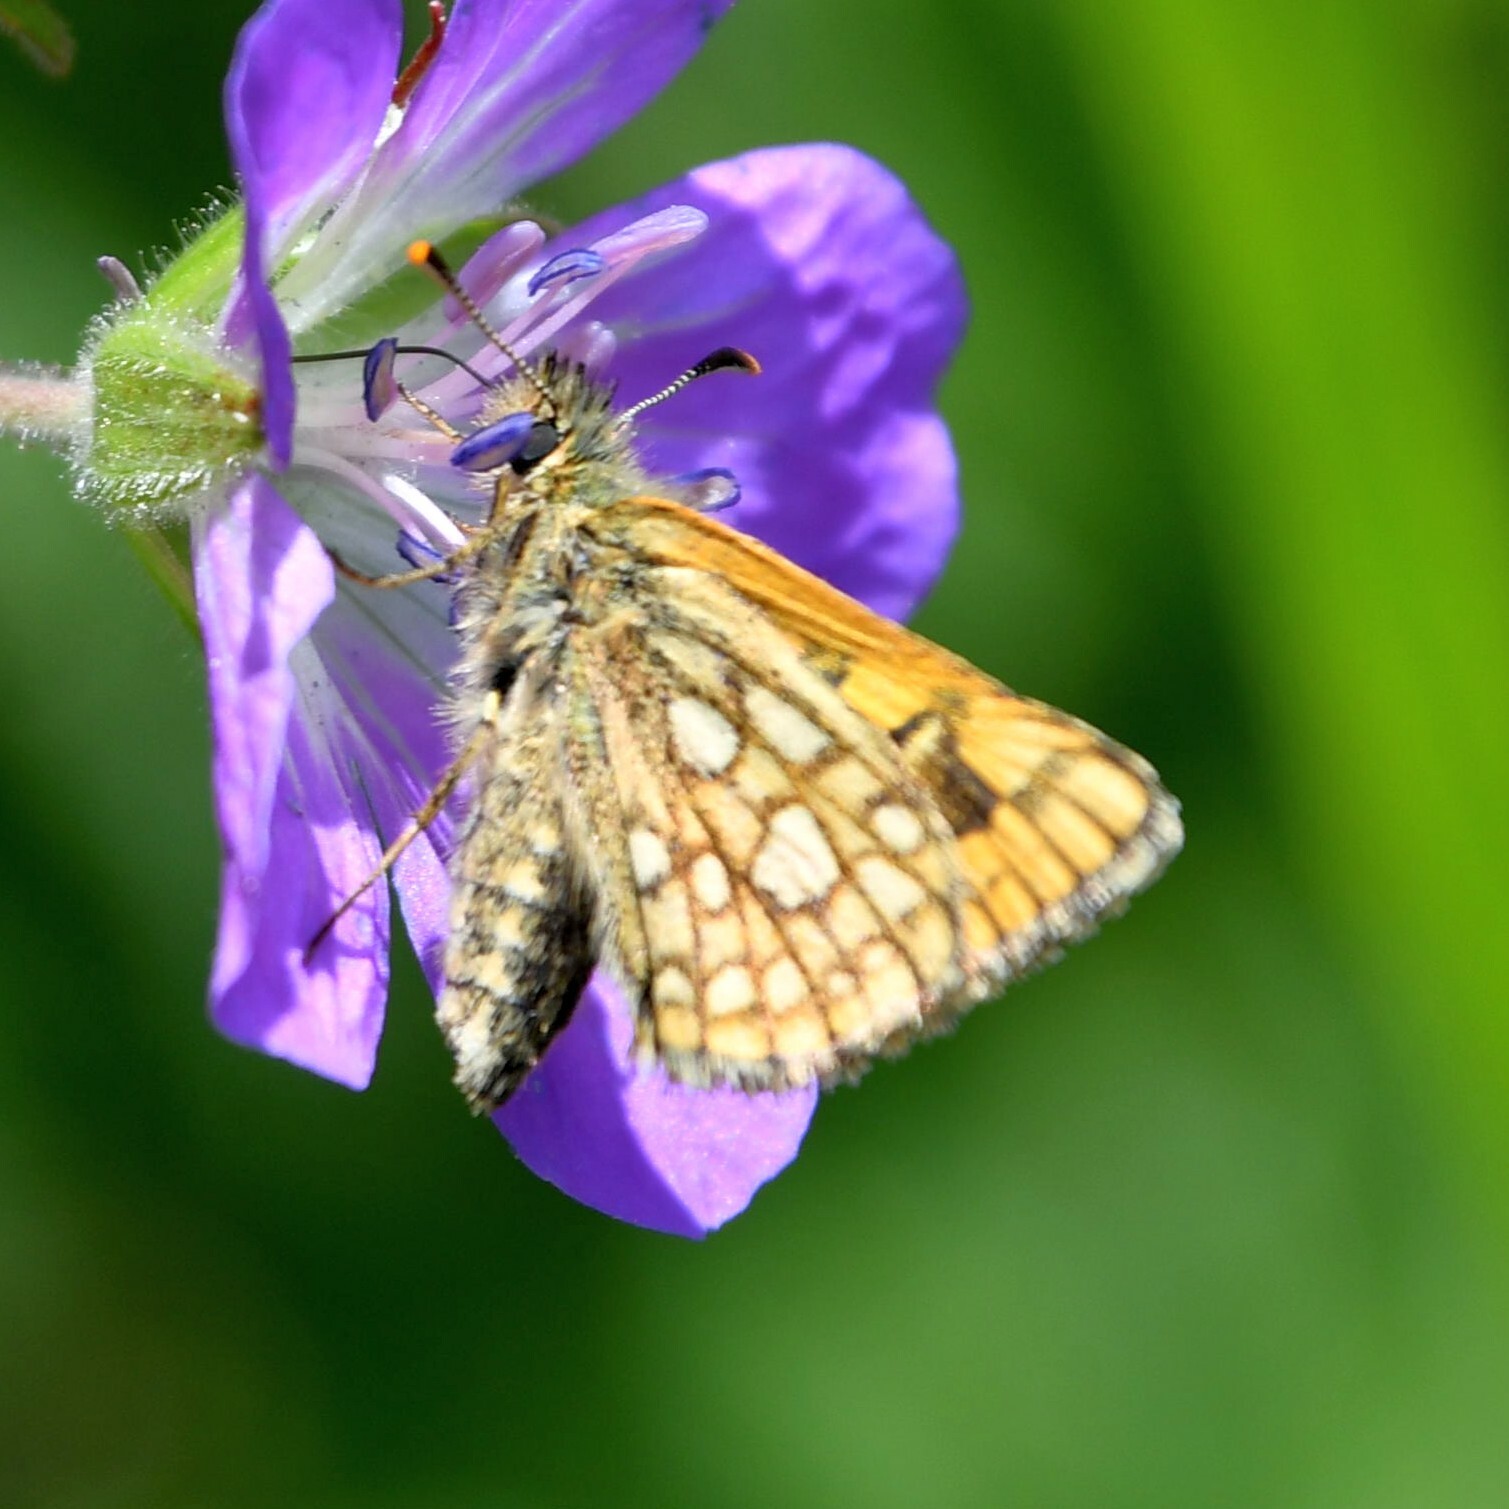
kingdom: Animalia
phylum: Arthropoda
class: Insecta
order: Lepidoptera
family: Hesperiidae
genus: Carterocephalus
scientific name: Carterocephalus palaemon
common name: Chequered skipper
